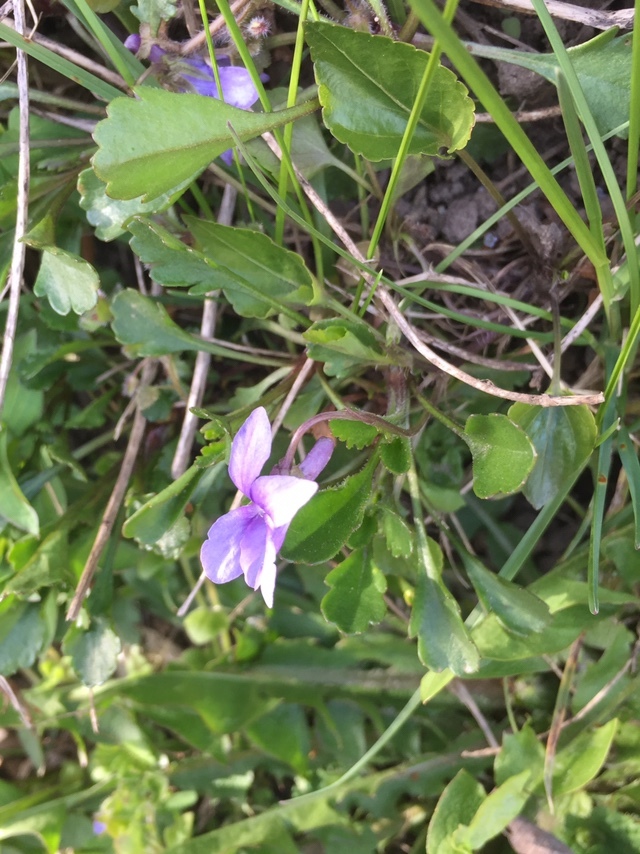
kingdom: Plantae
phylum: Tracheophyta
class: Magnoliopsida
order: Malpighiales
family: Violaceae
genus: Viola
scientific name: Viola reichenbachiana
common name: Early dog-violet
